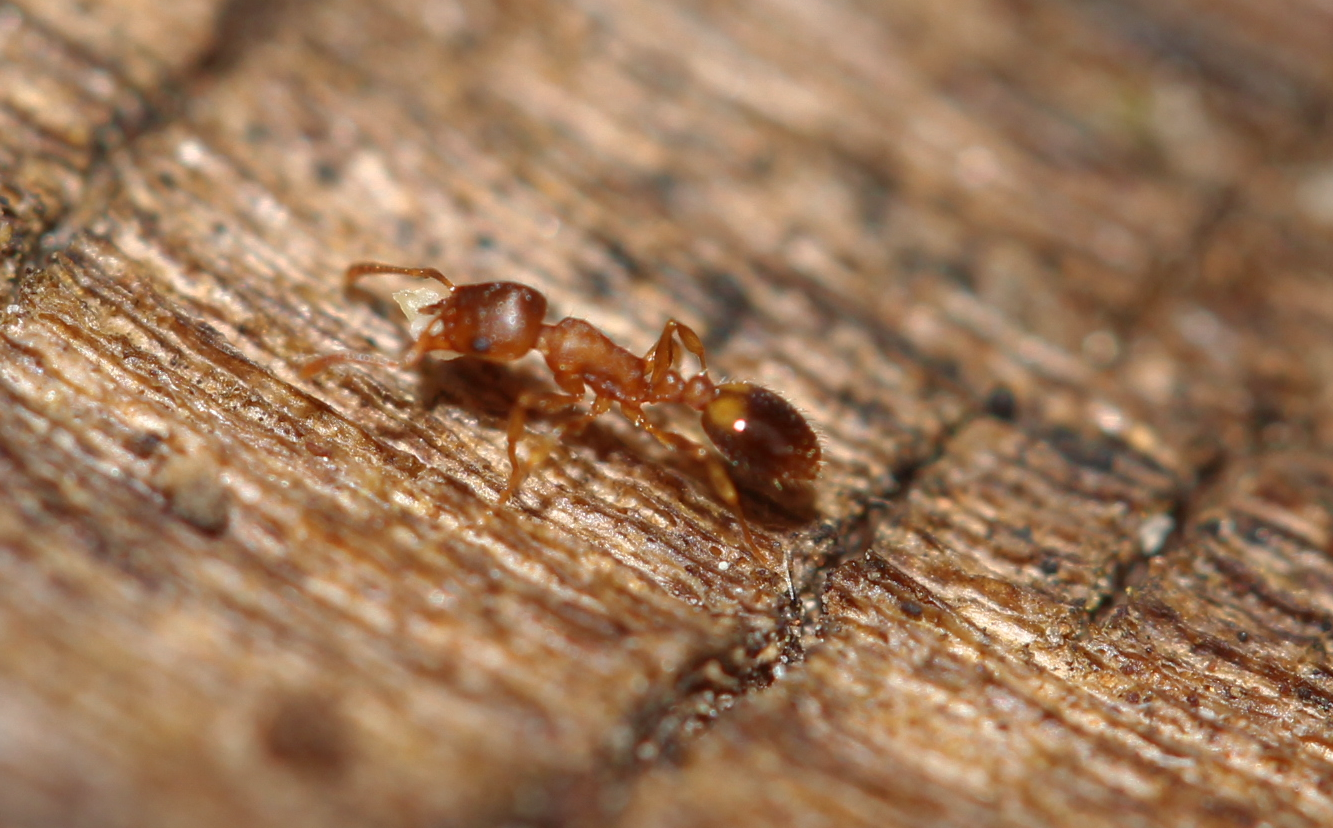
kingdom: Animalia
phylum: Arthropoda
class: Insecta
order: Hymenoptera
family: Formicidae
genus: Temnothorax
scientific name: Temnothorax
